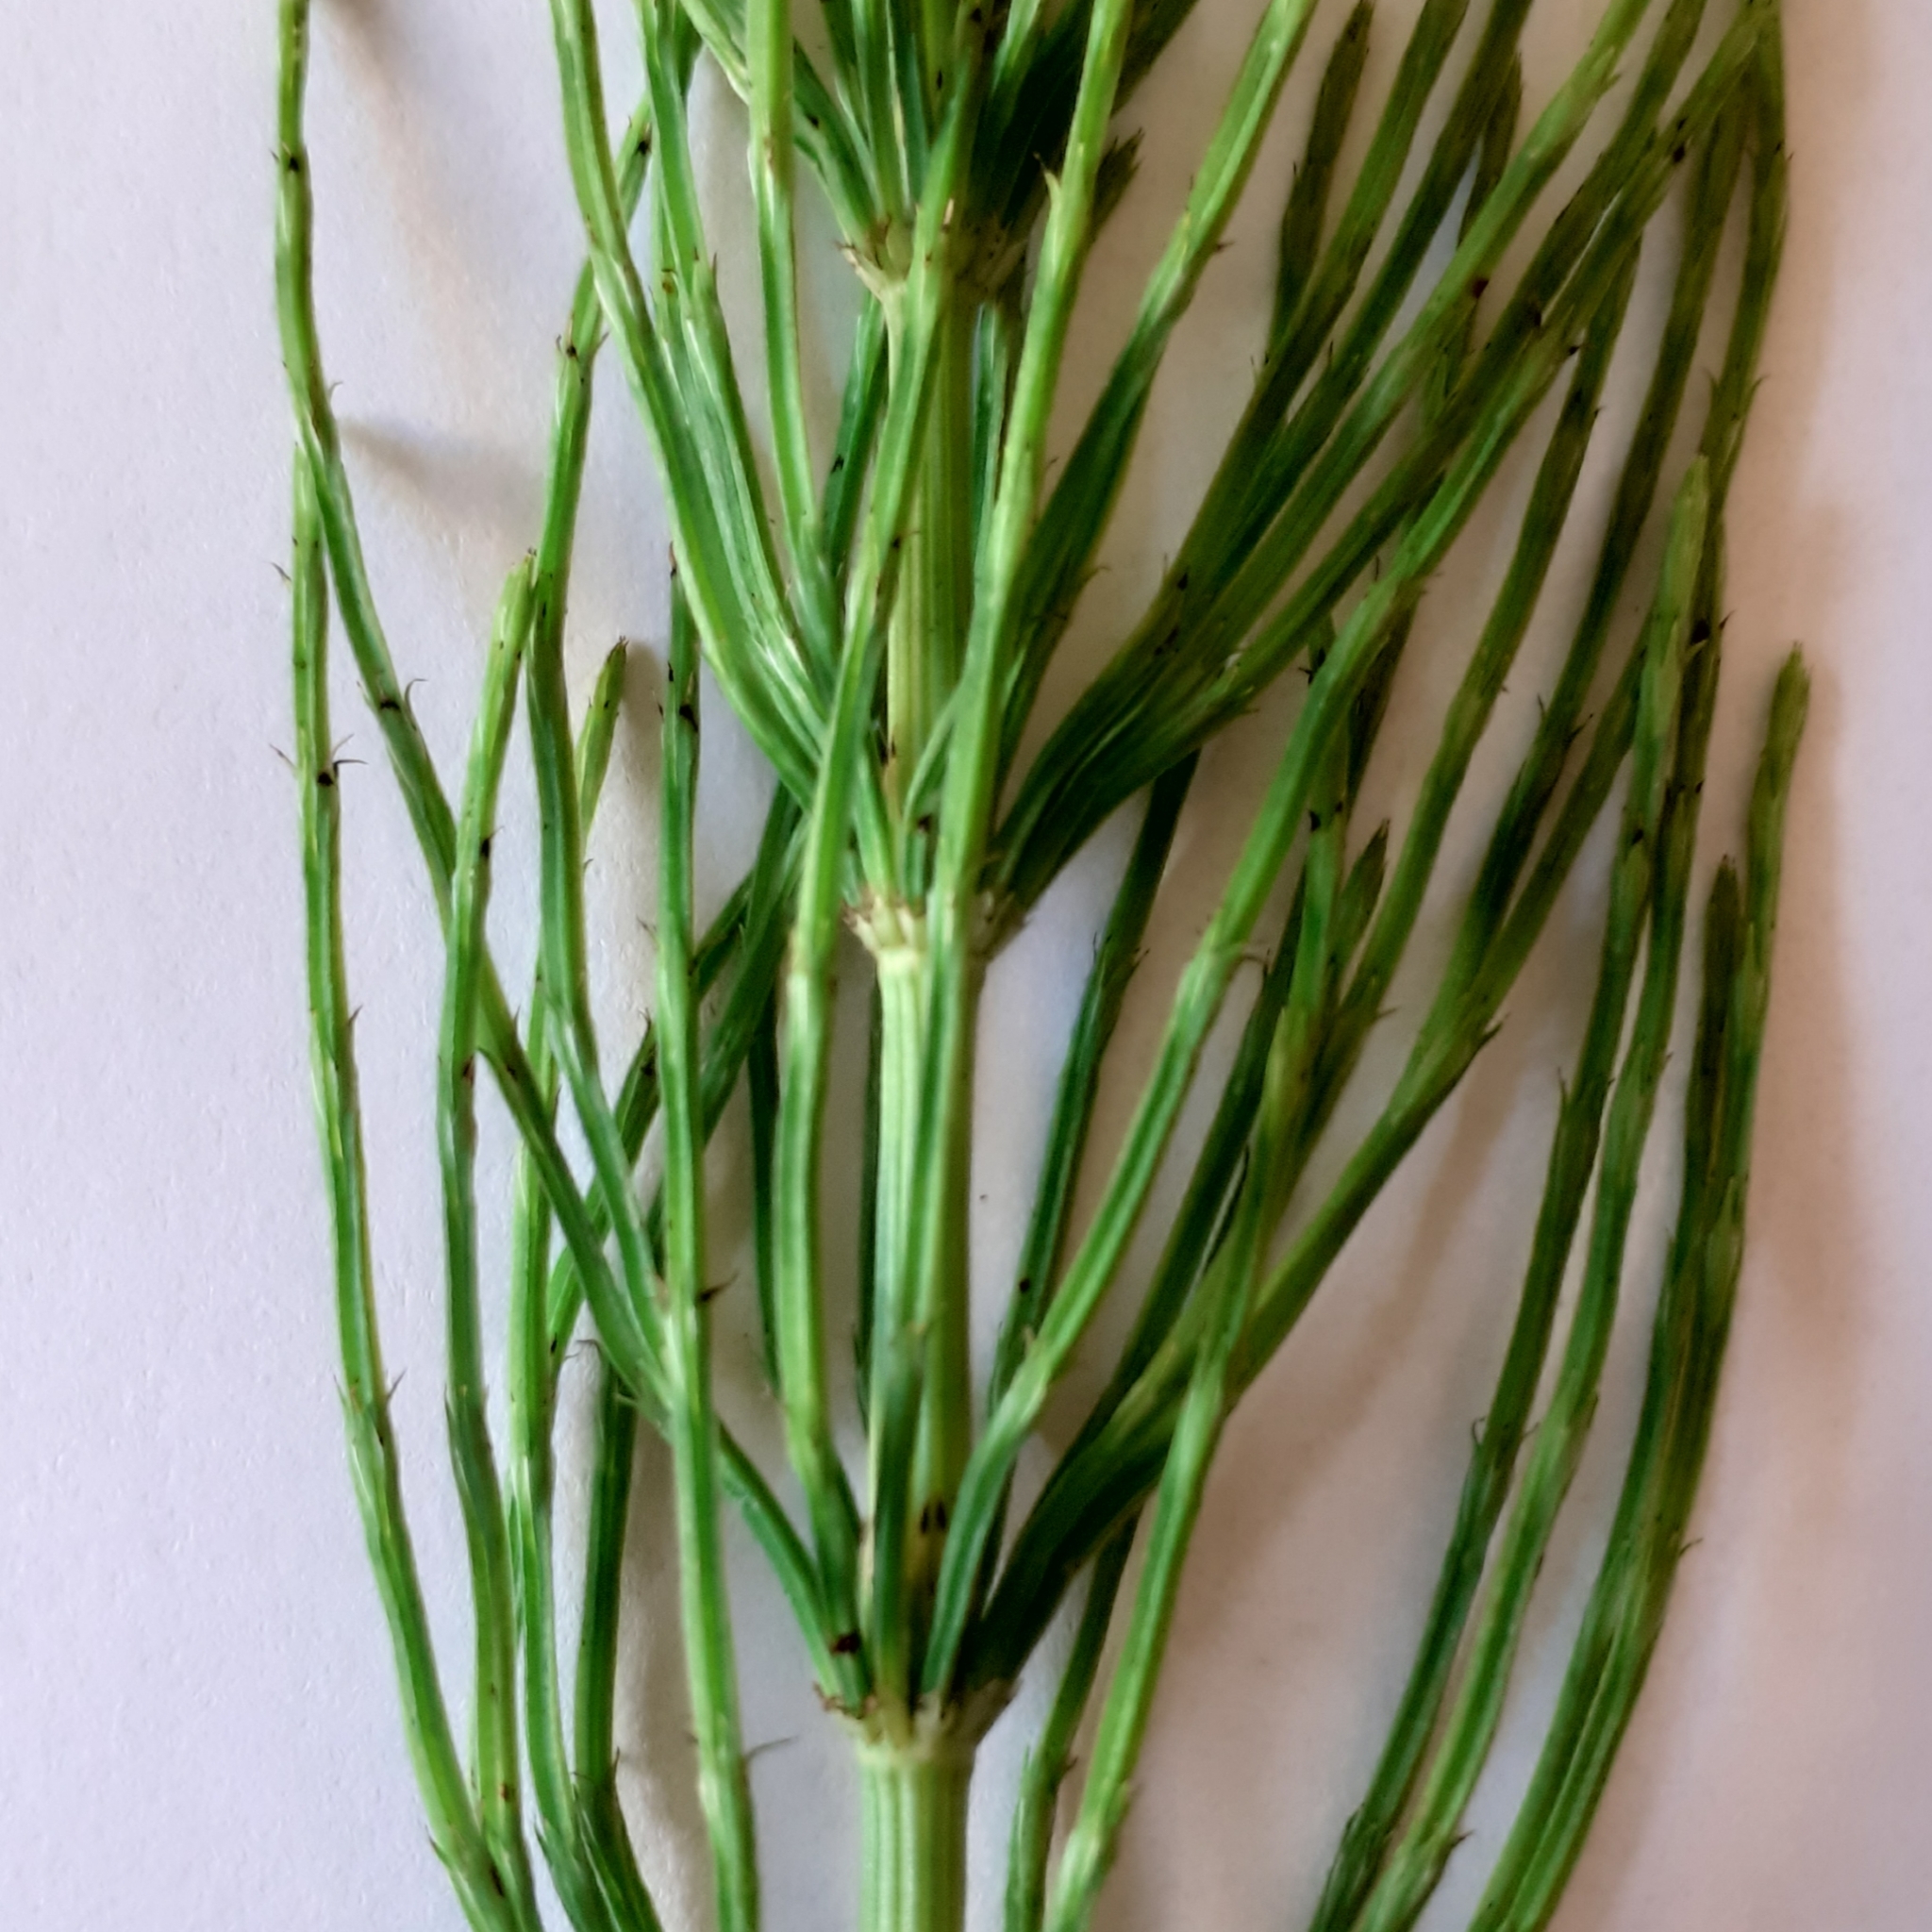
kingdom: Plantae
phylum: Tracheophyta
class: Polypodiopsida
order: Equisetales
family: Equisetaceae
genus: Equisetum
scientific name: Equisetum arvense
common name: Field horsetail
